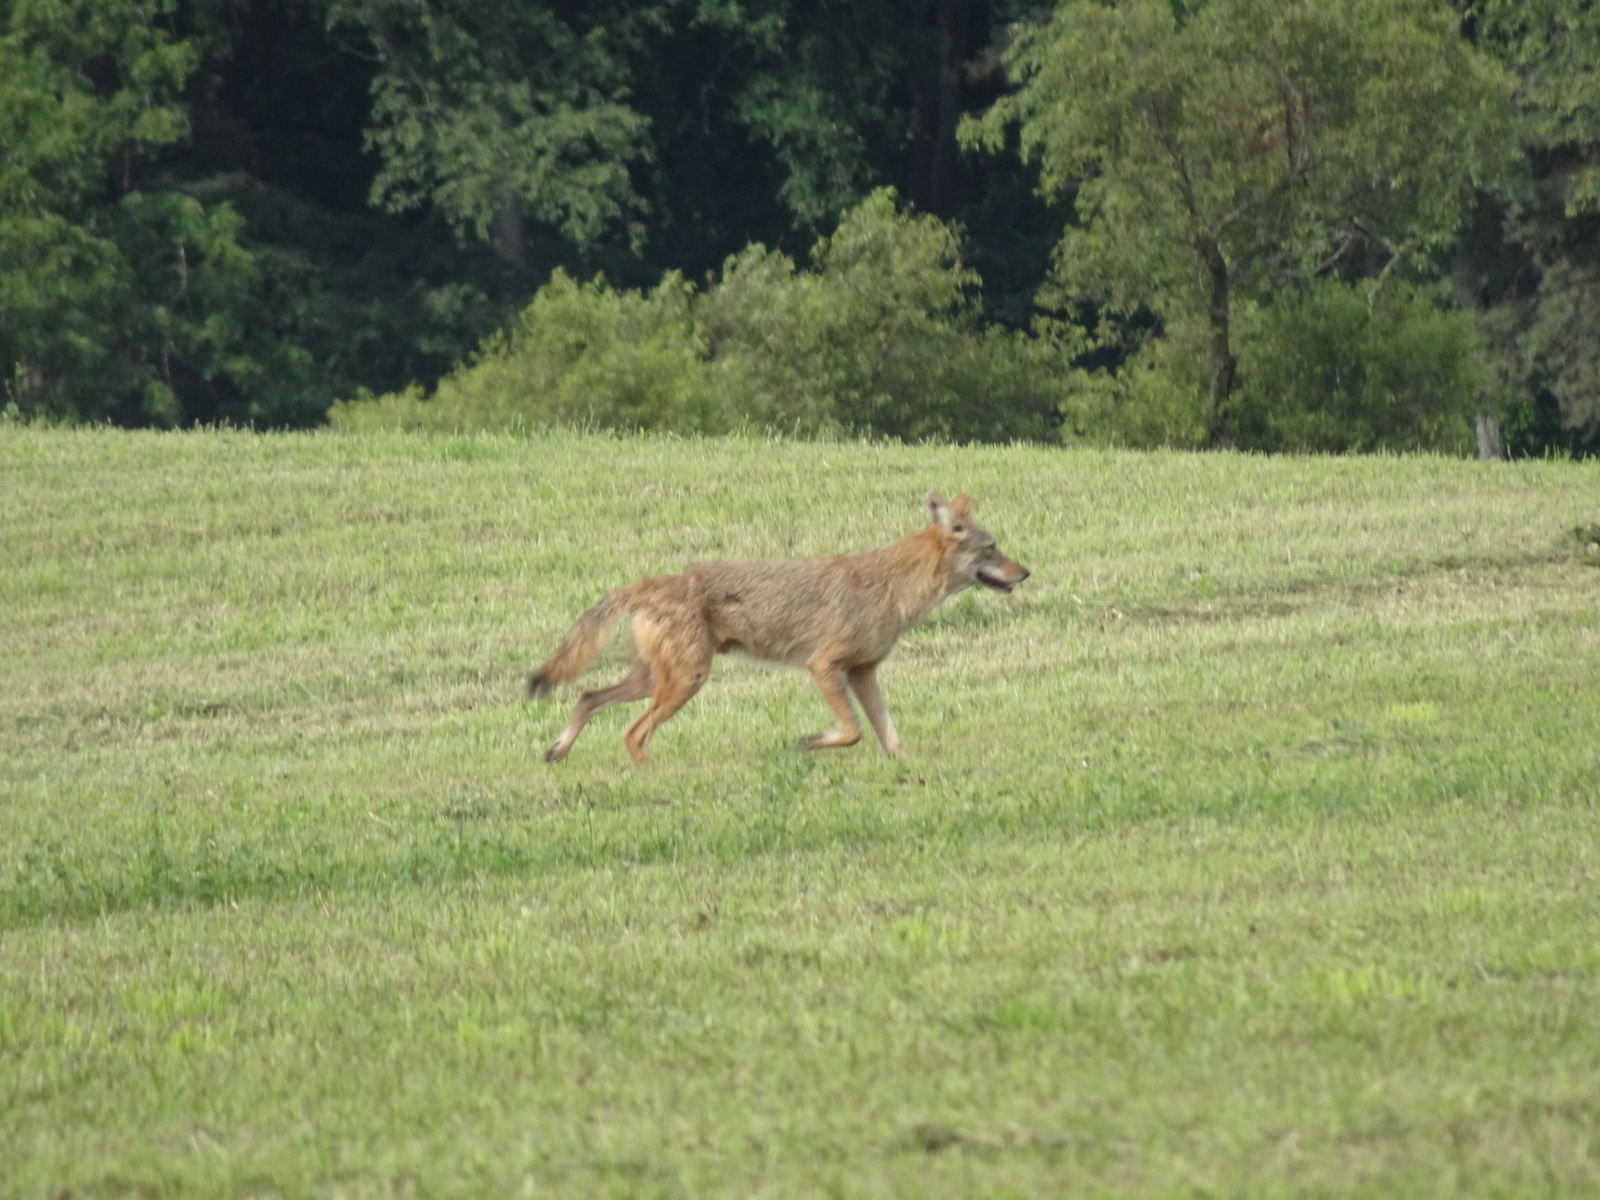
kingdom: Animalia
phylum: Chordata
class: Mammalia
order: Carnivora
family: Canidae
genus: Canis
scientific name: Canis latrans
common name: Coyote
